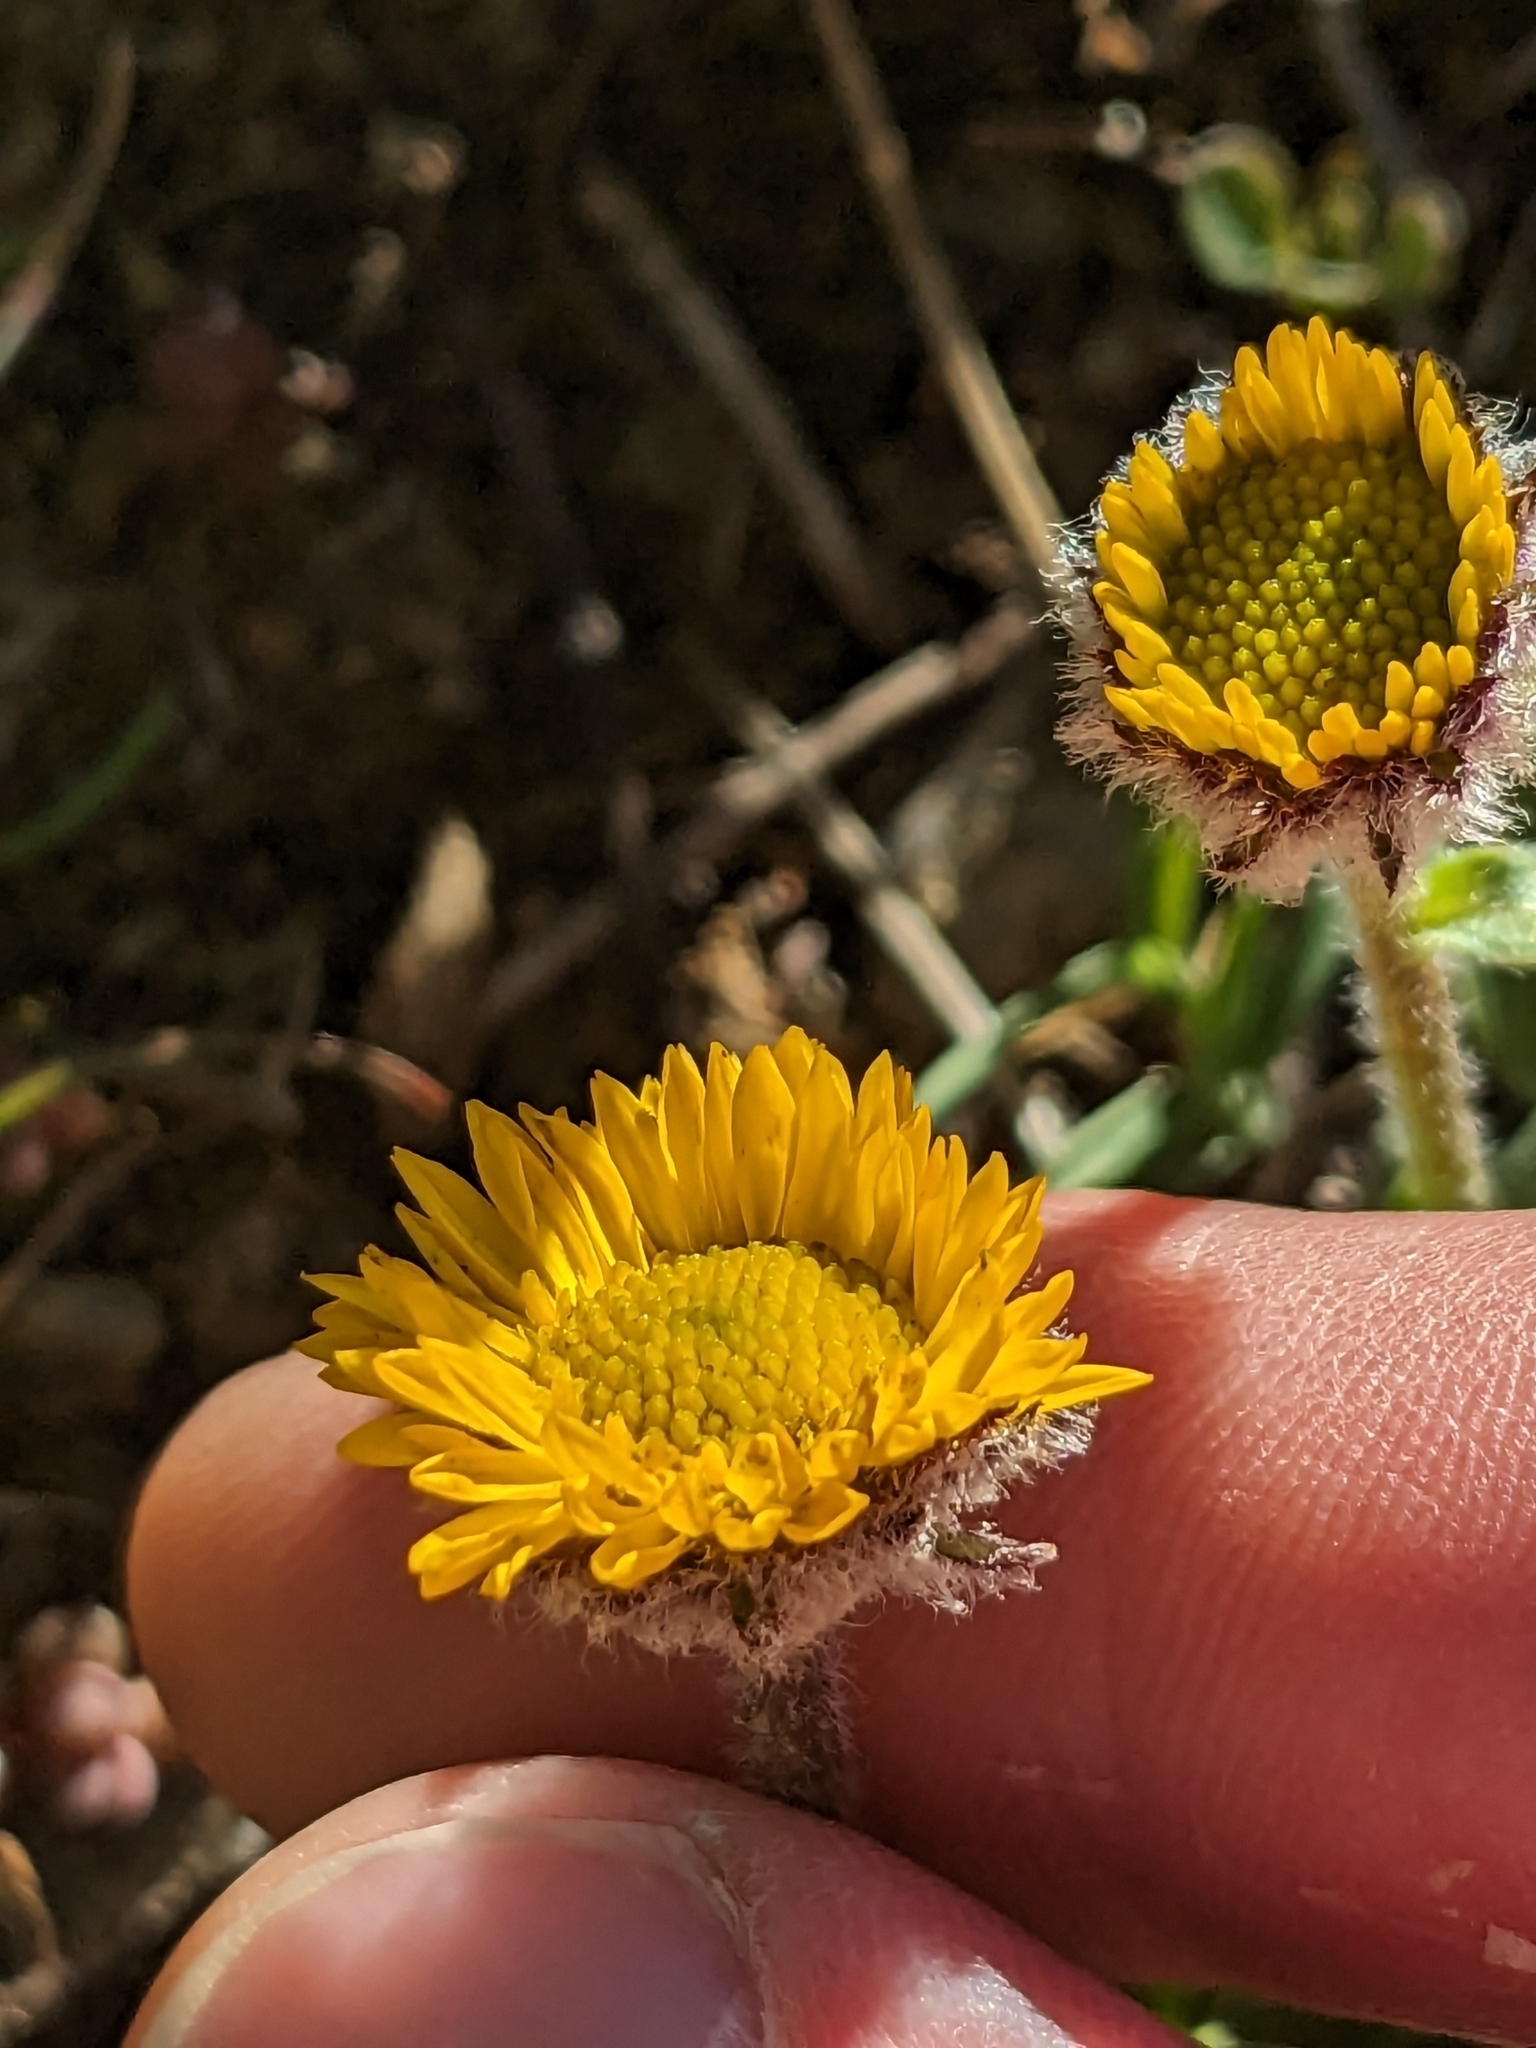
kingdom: Plantae
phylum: Tracheophyta
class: Magnoliopsida
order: Asterales
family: Asteraceae
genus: Erigeron
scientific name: Erigeron aureus
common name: Alpine yellow fleabane
